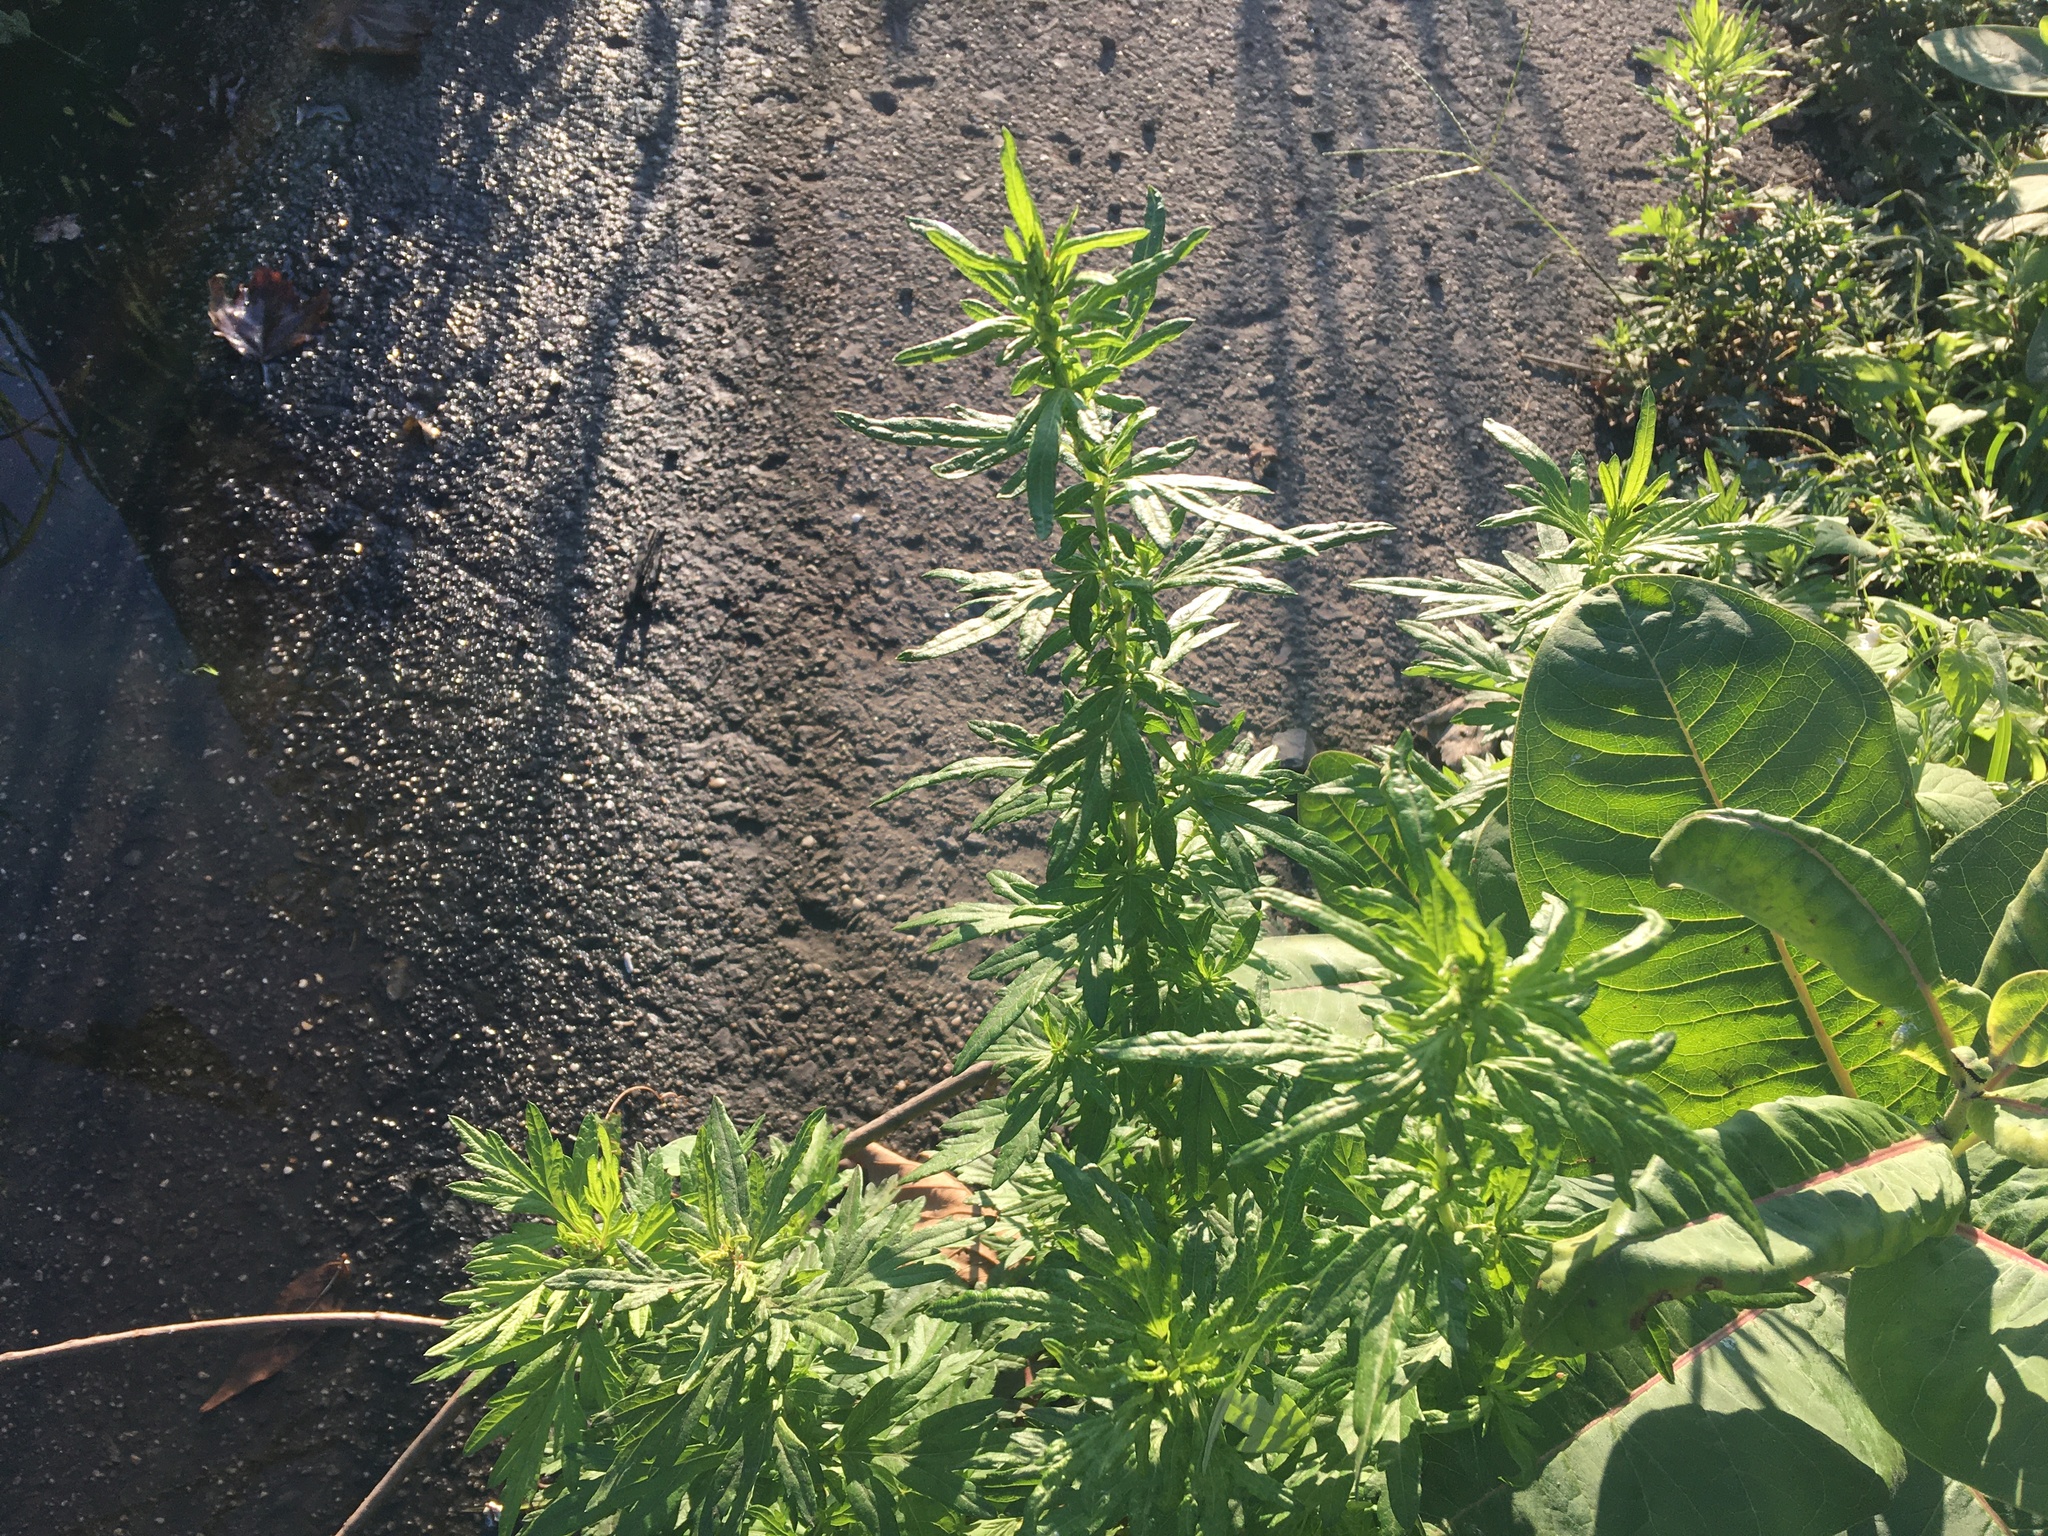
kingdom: Plantae
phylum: Tracheophyta
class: Magnoliopsida
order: Asterales
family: Asteraceae
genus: Artemisia
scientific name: Artemisia vulgaris
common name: Mugwort
